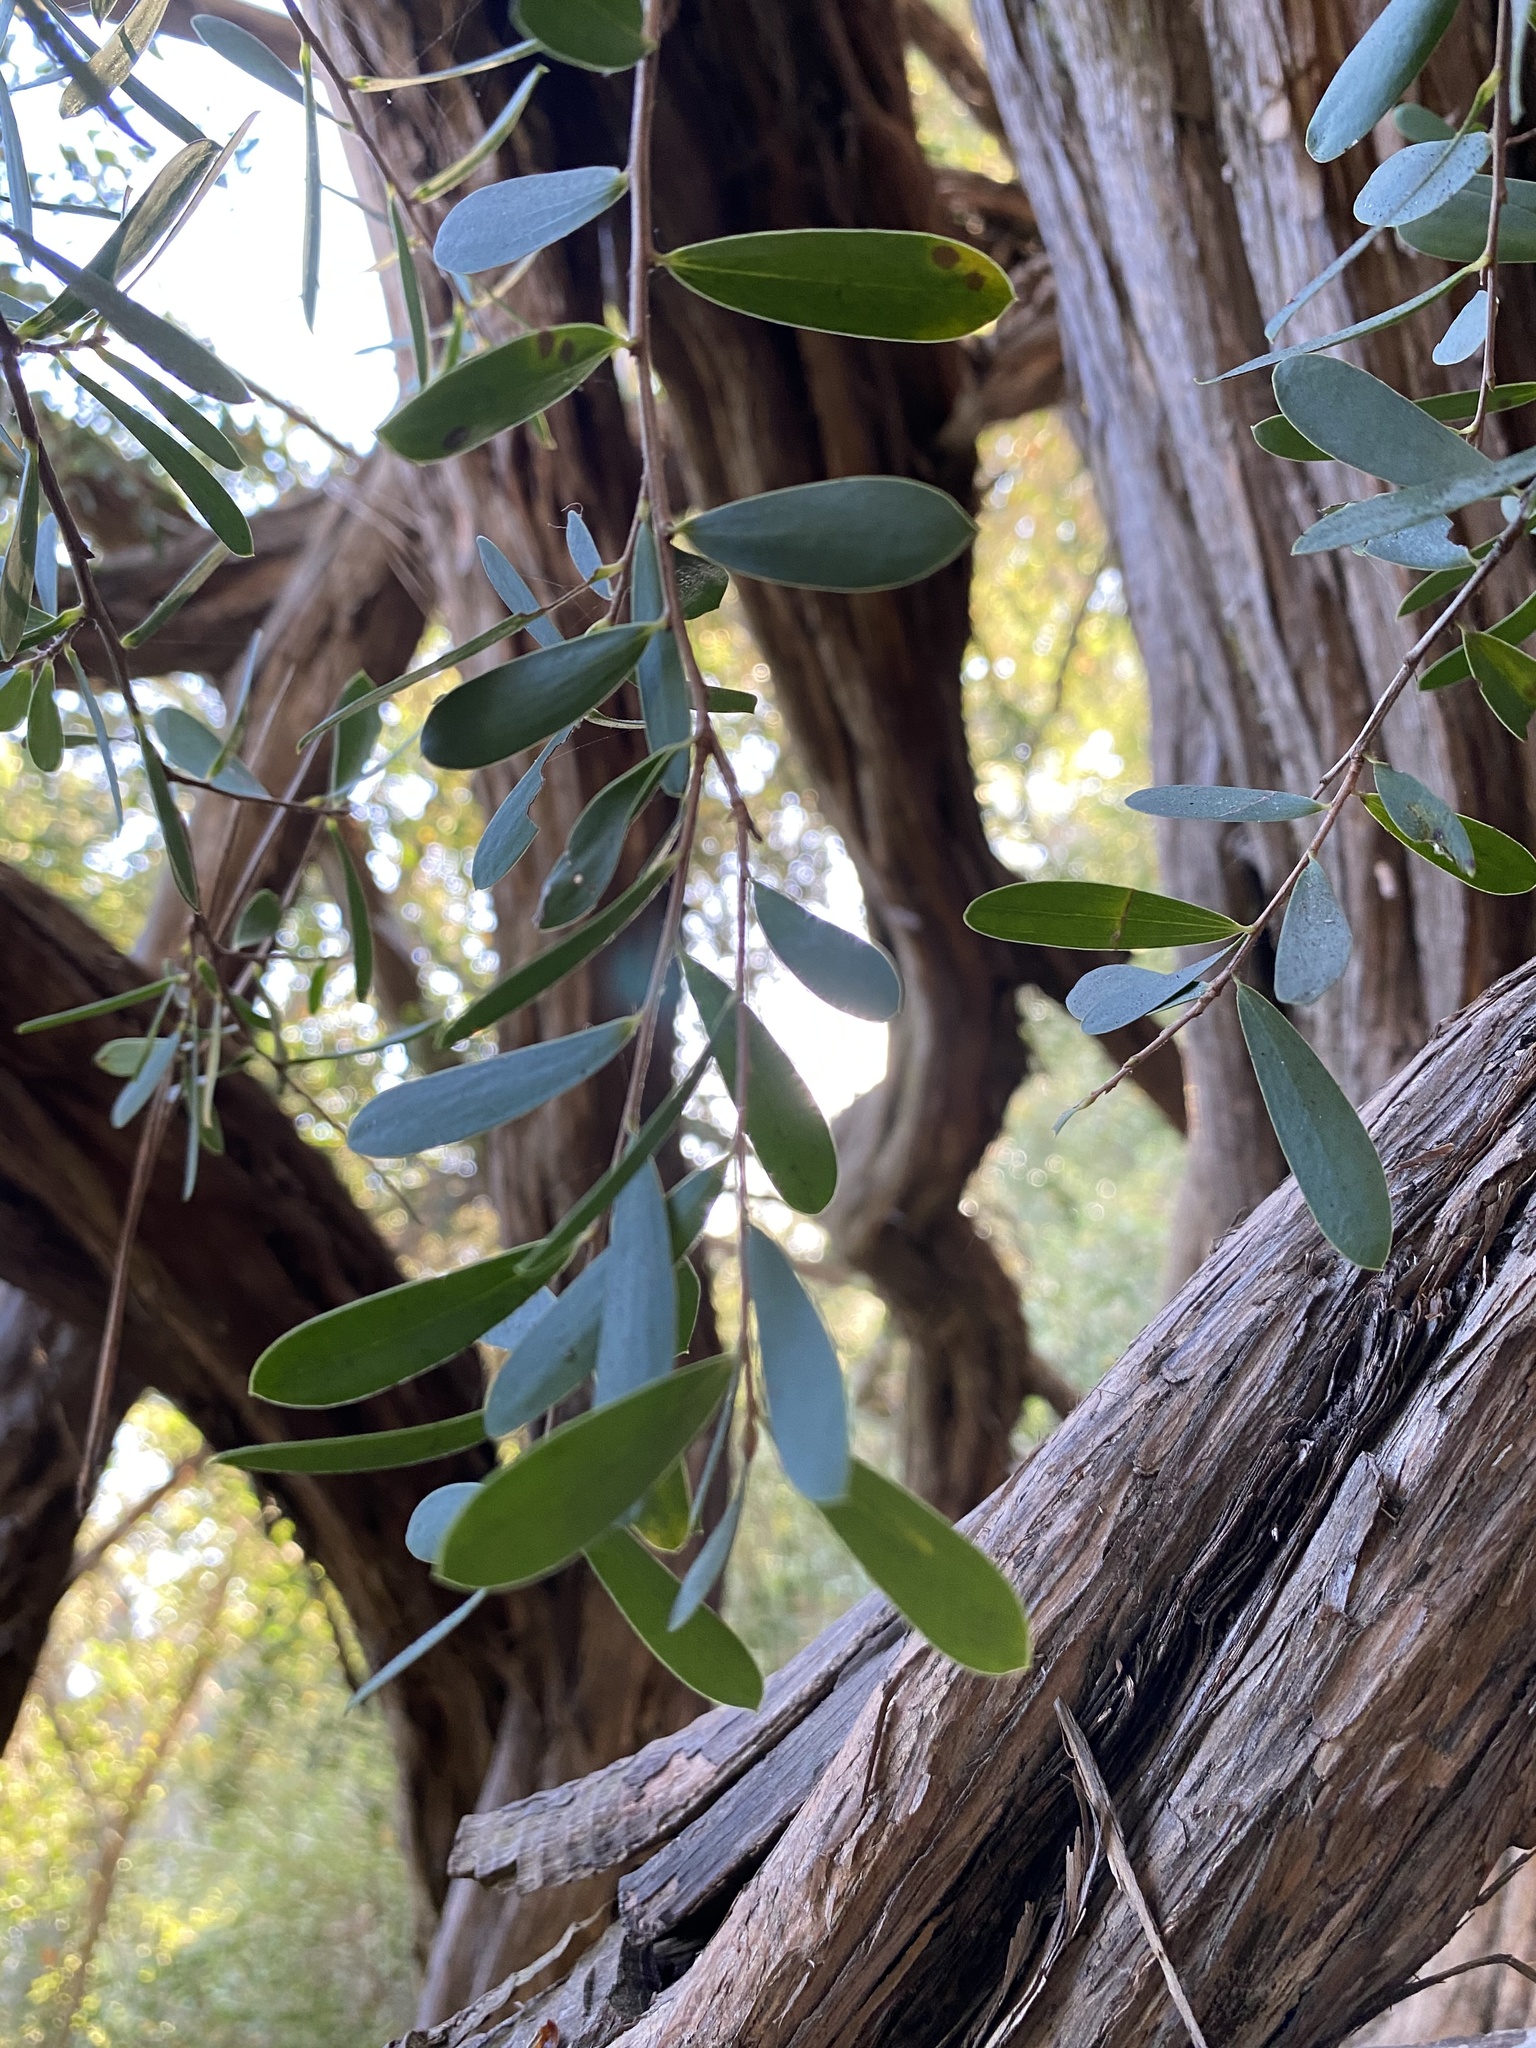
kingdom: Plantae
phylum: Tracheophyta
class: Magnoliopsida
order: Myrtales
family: Myrtaceae
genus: Leptospermum
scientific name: Leptospermum laevigatum
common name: Australian teatree
